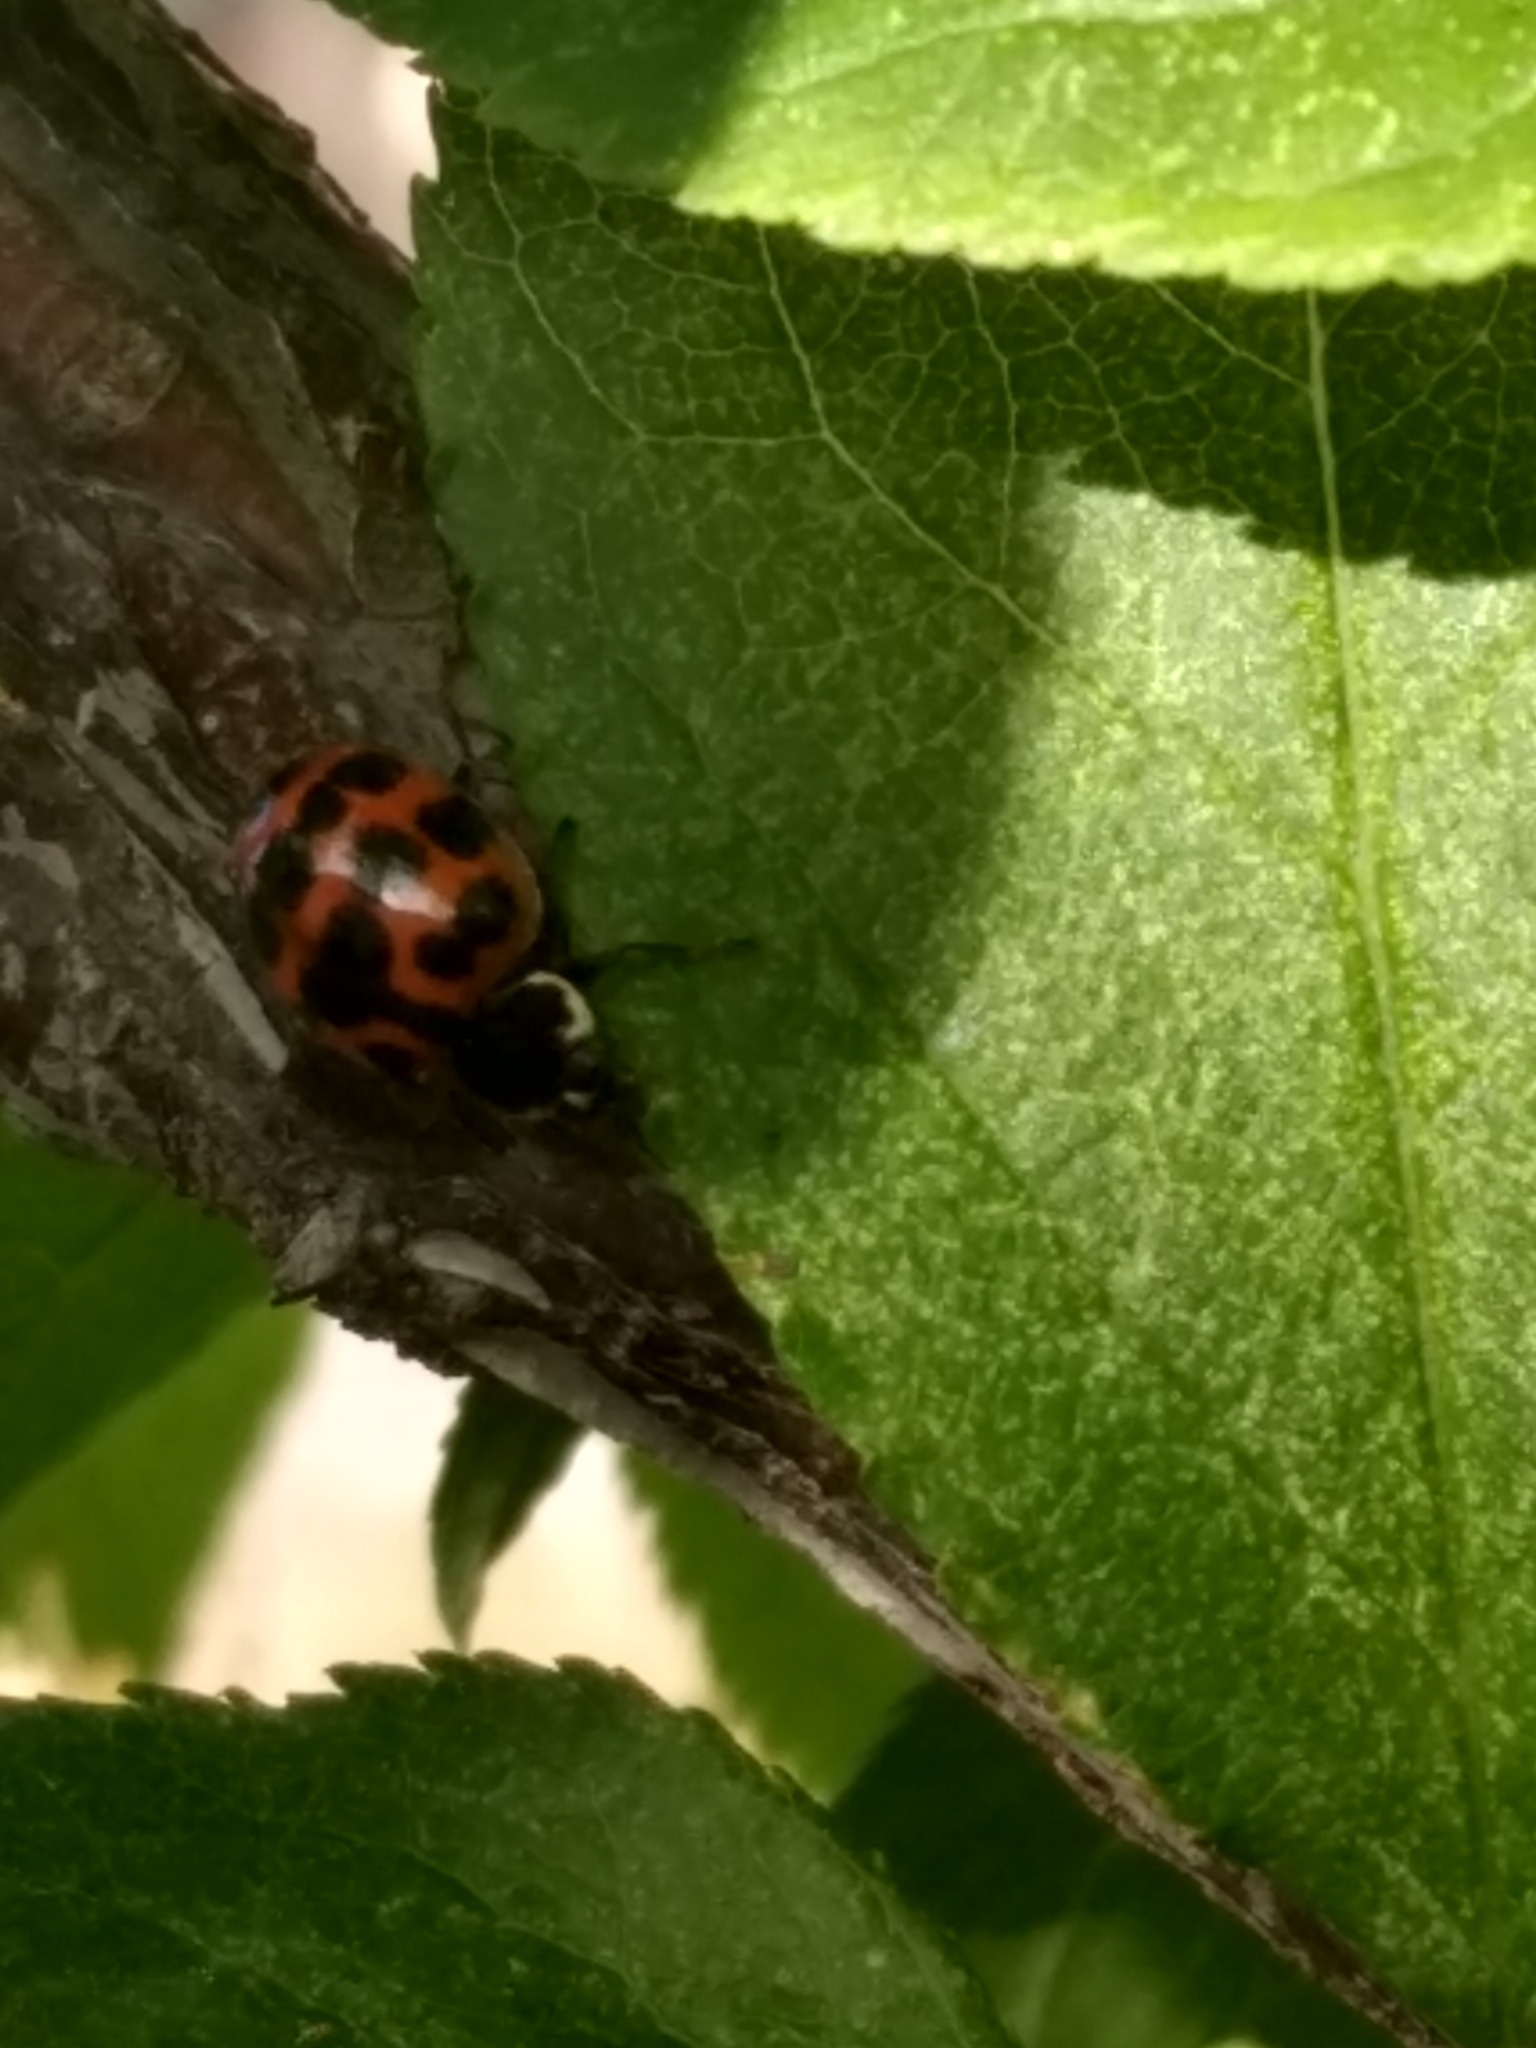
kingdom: Animalia
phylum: Arthropoda
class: Insecta
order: Coleoptera
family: Coccinellidae
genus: Harmonia
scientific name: Harmonia axyridis
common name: Harlequin ladybird
